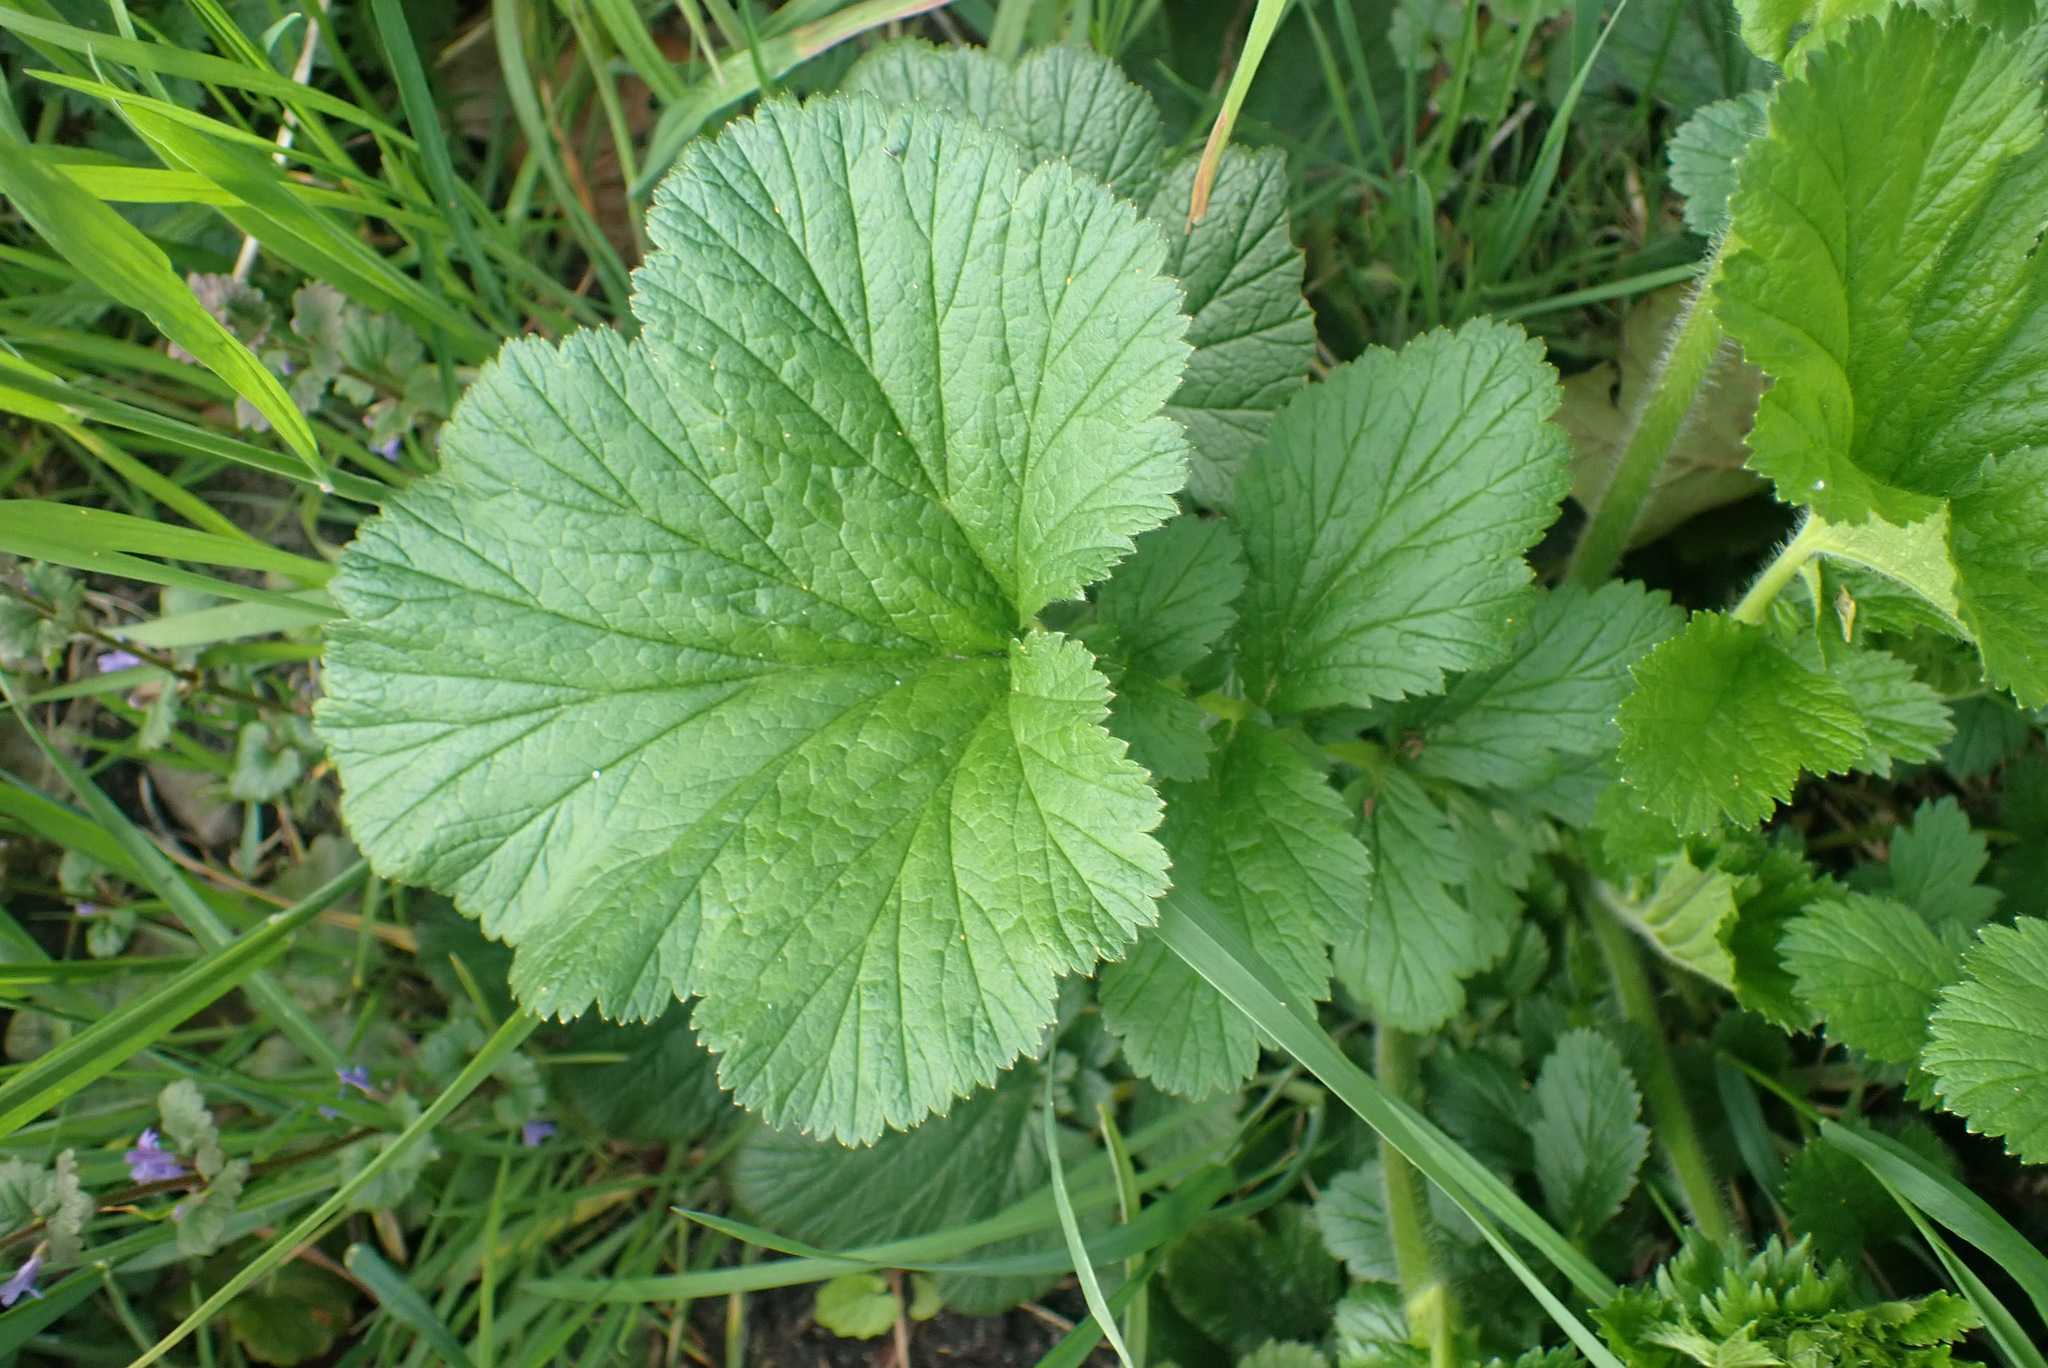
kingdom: Plantae
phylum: Tracheophyta
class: Magnoliopsida
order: Rosales
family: Rosaceae
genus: Geum
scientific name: Geum macrophyllum
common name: Large-leaved avens
